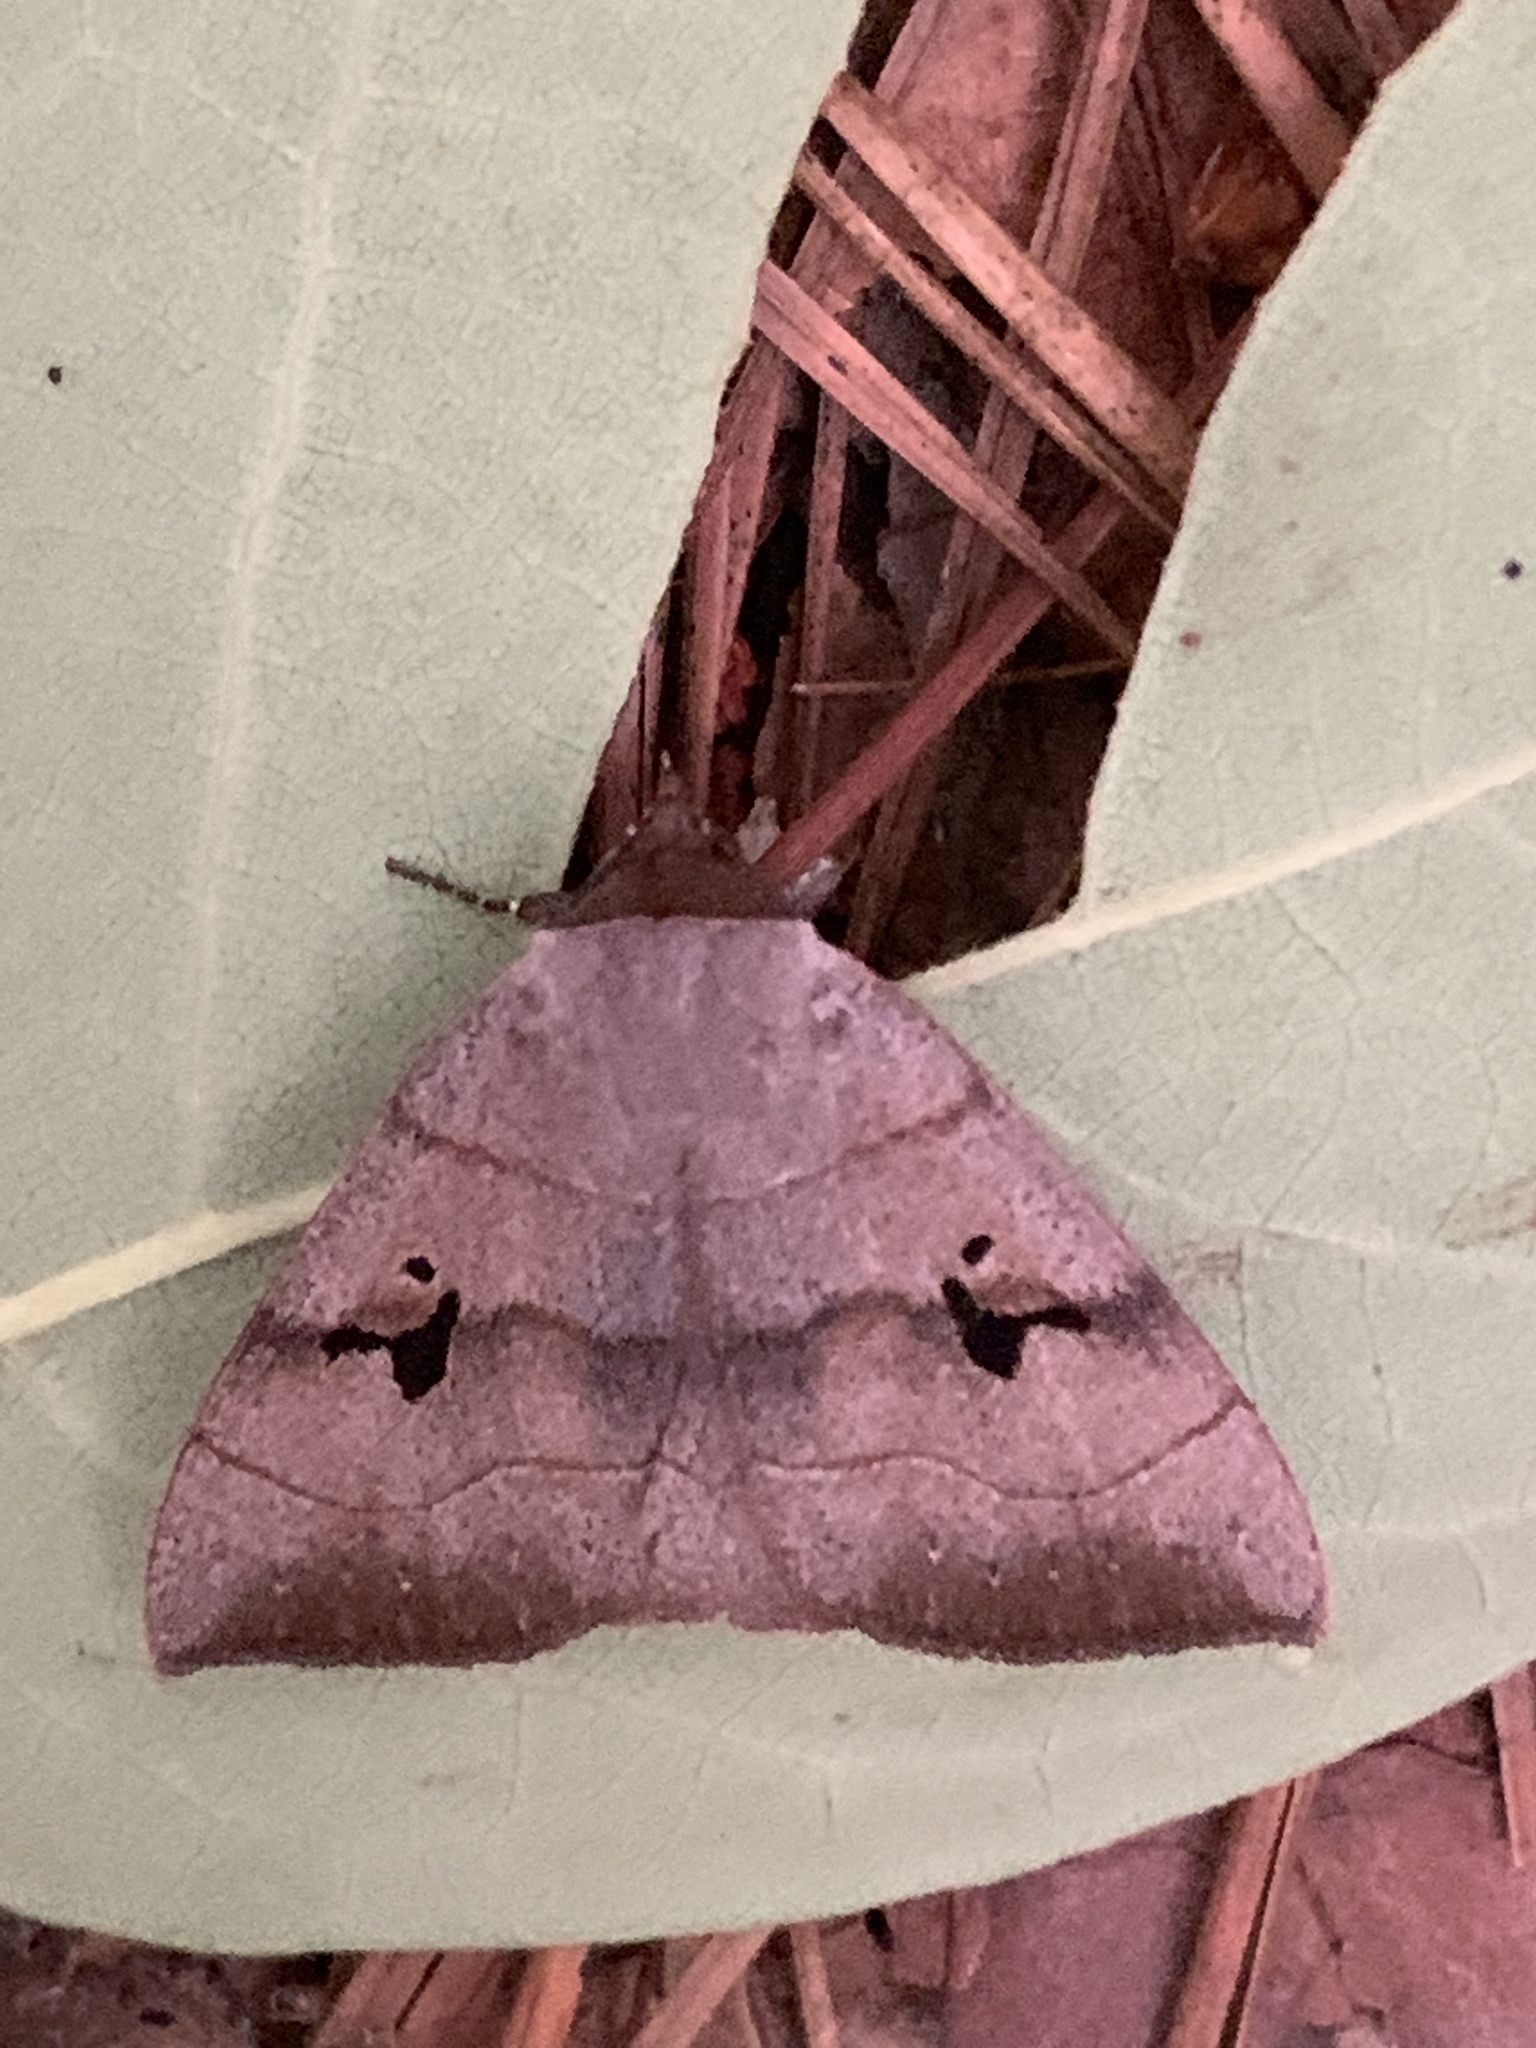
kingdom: Animalia
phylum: Arthropoda
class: Insecta
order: Lepidoptera
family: Erebidae
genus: Panopoda
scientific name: Panopoda carneicosta
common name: Brown panopoda moth
